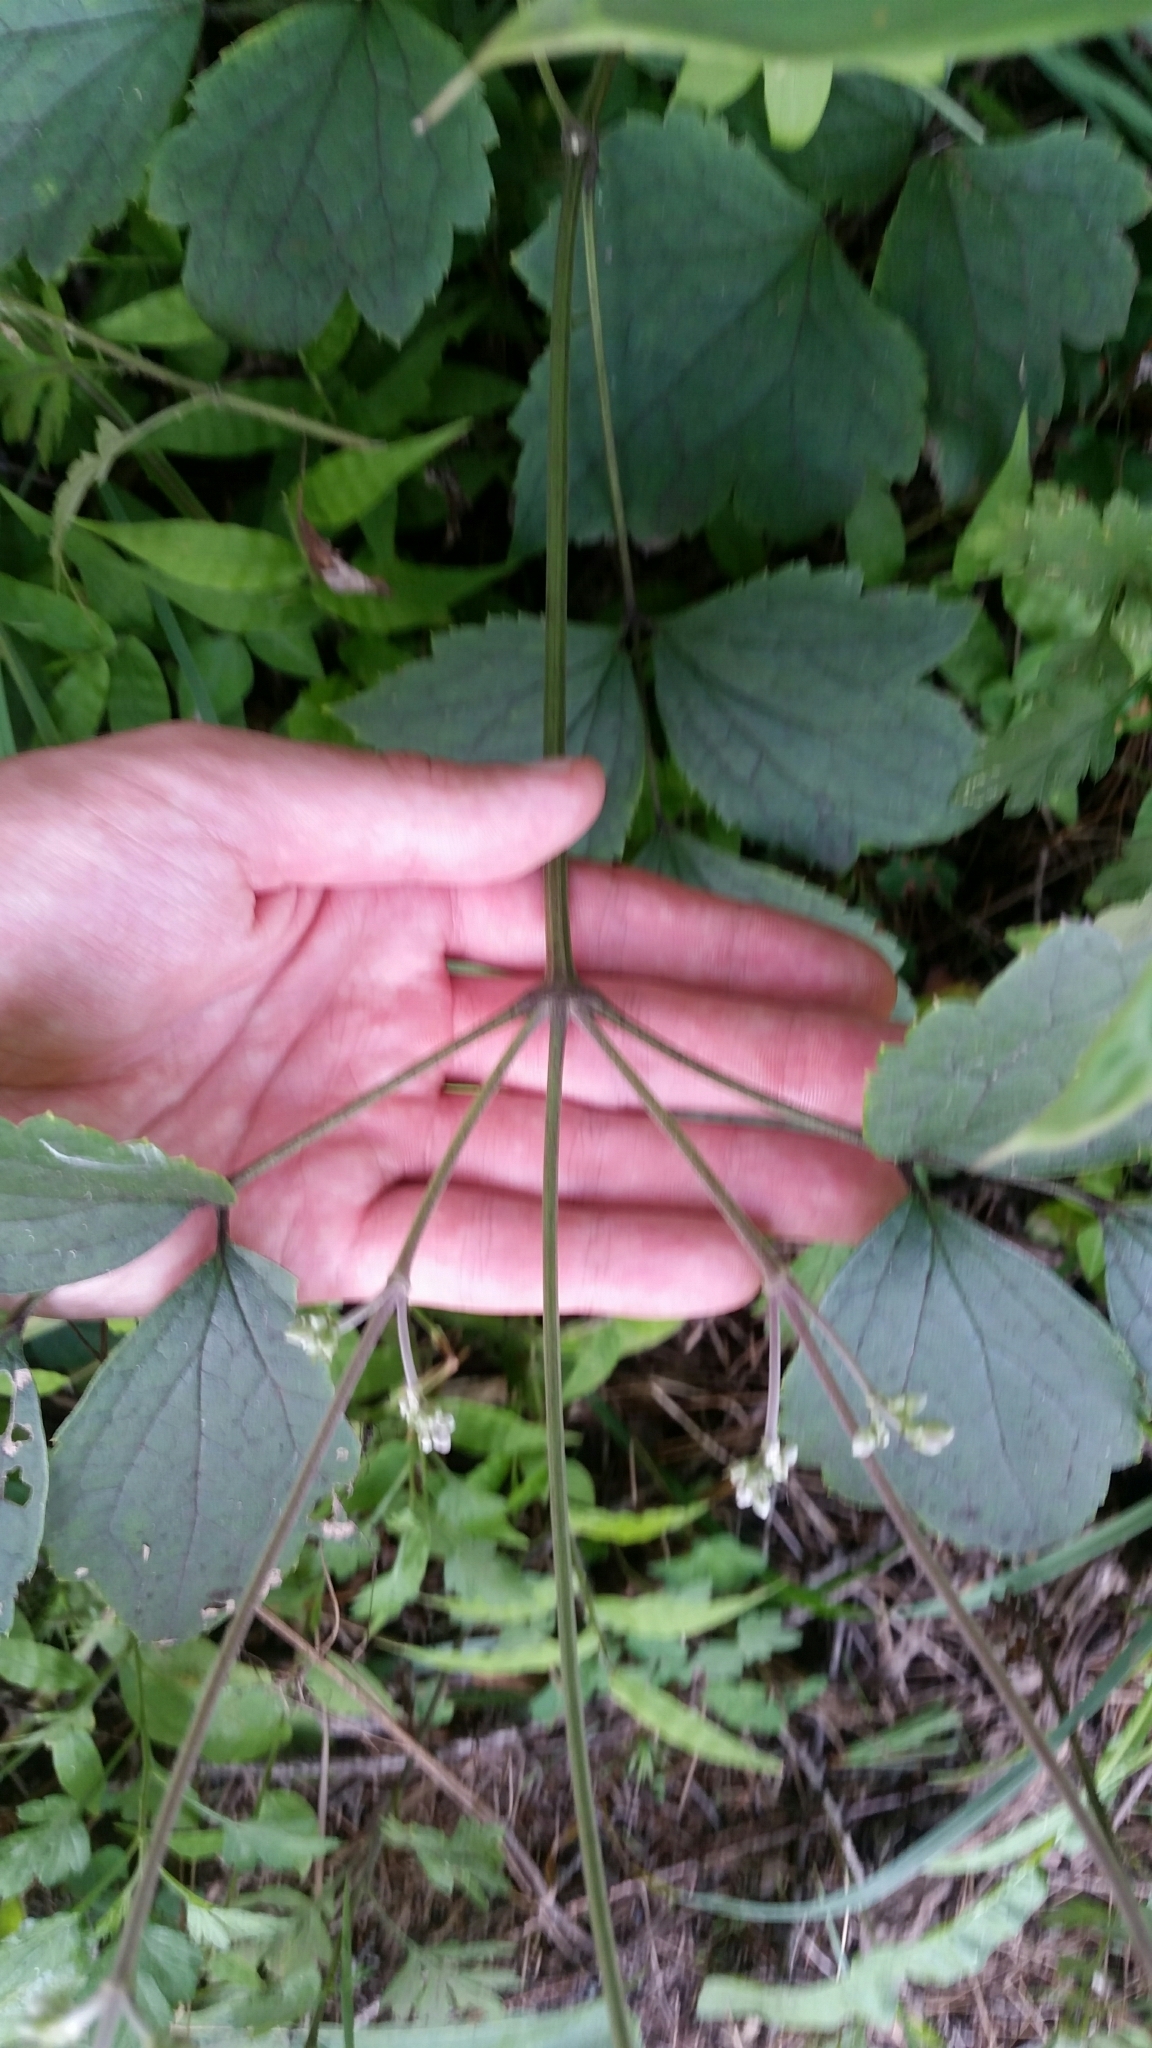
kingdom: Plantae
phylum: Tracheophyta
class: Magnoliopsida
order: Ranunculales
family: Ranunculaceae
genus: Clematis
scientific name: Clematis stans
